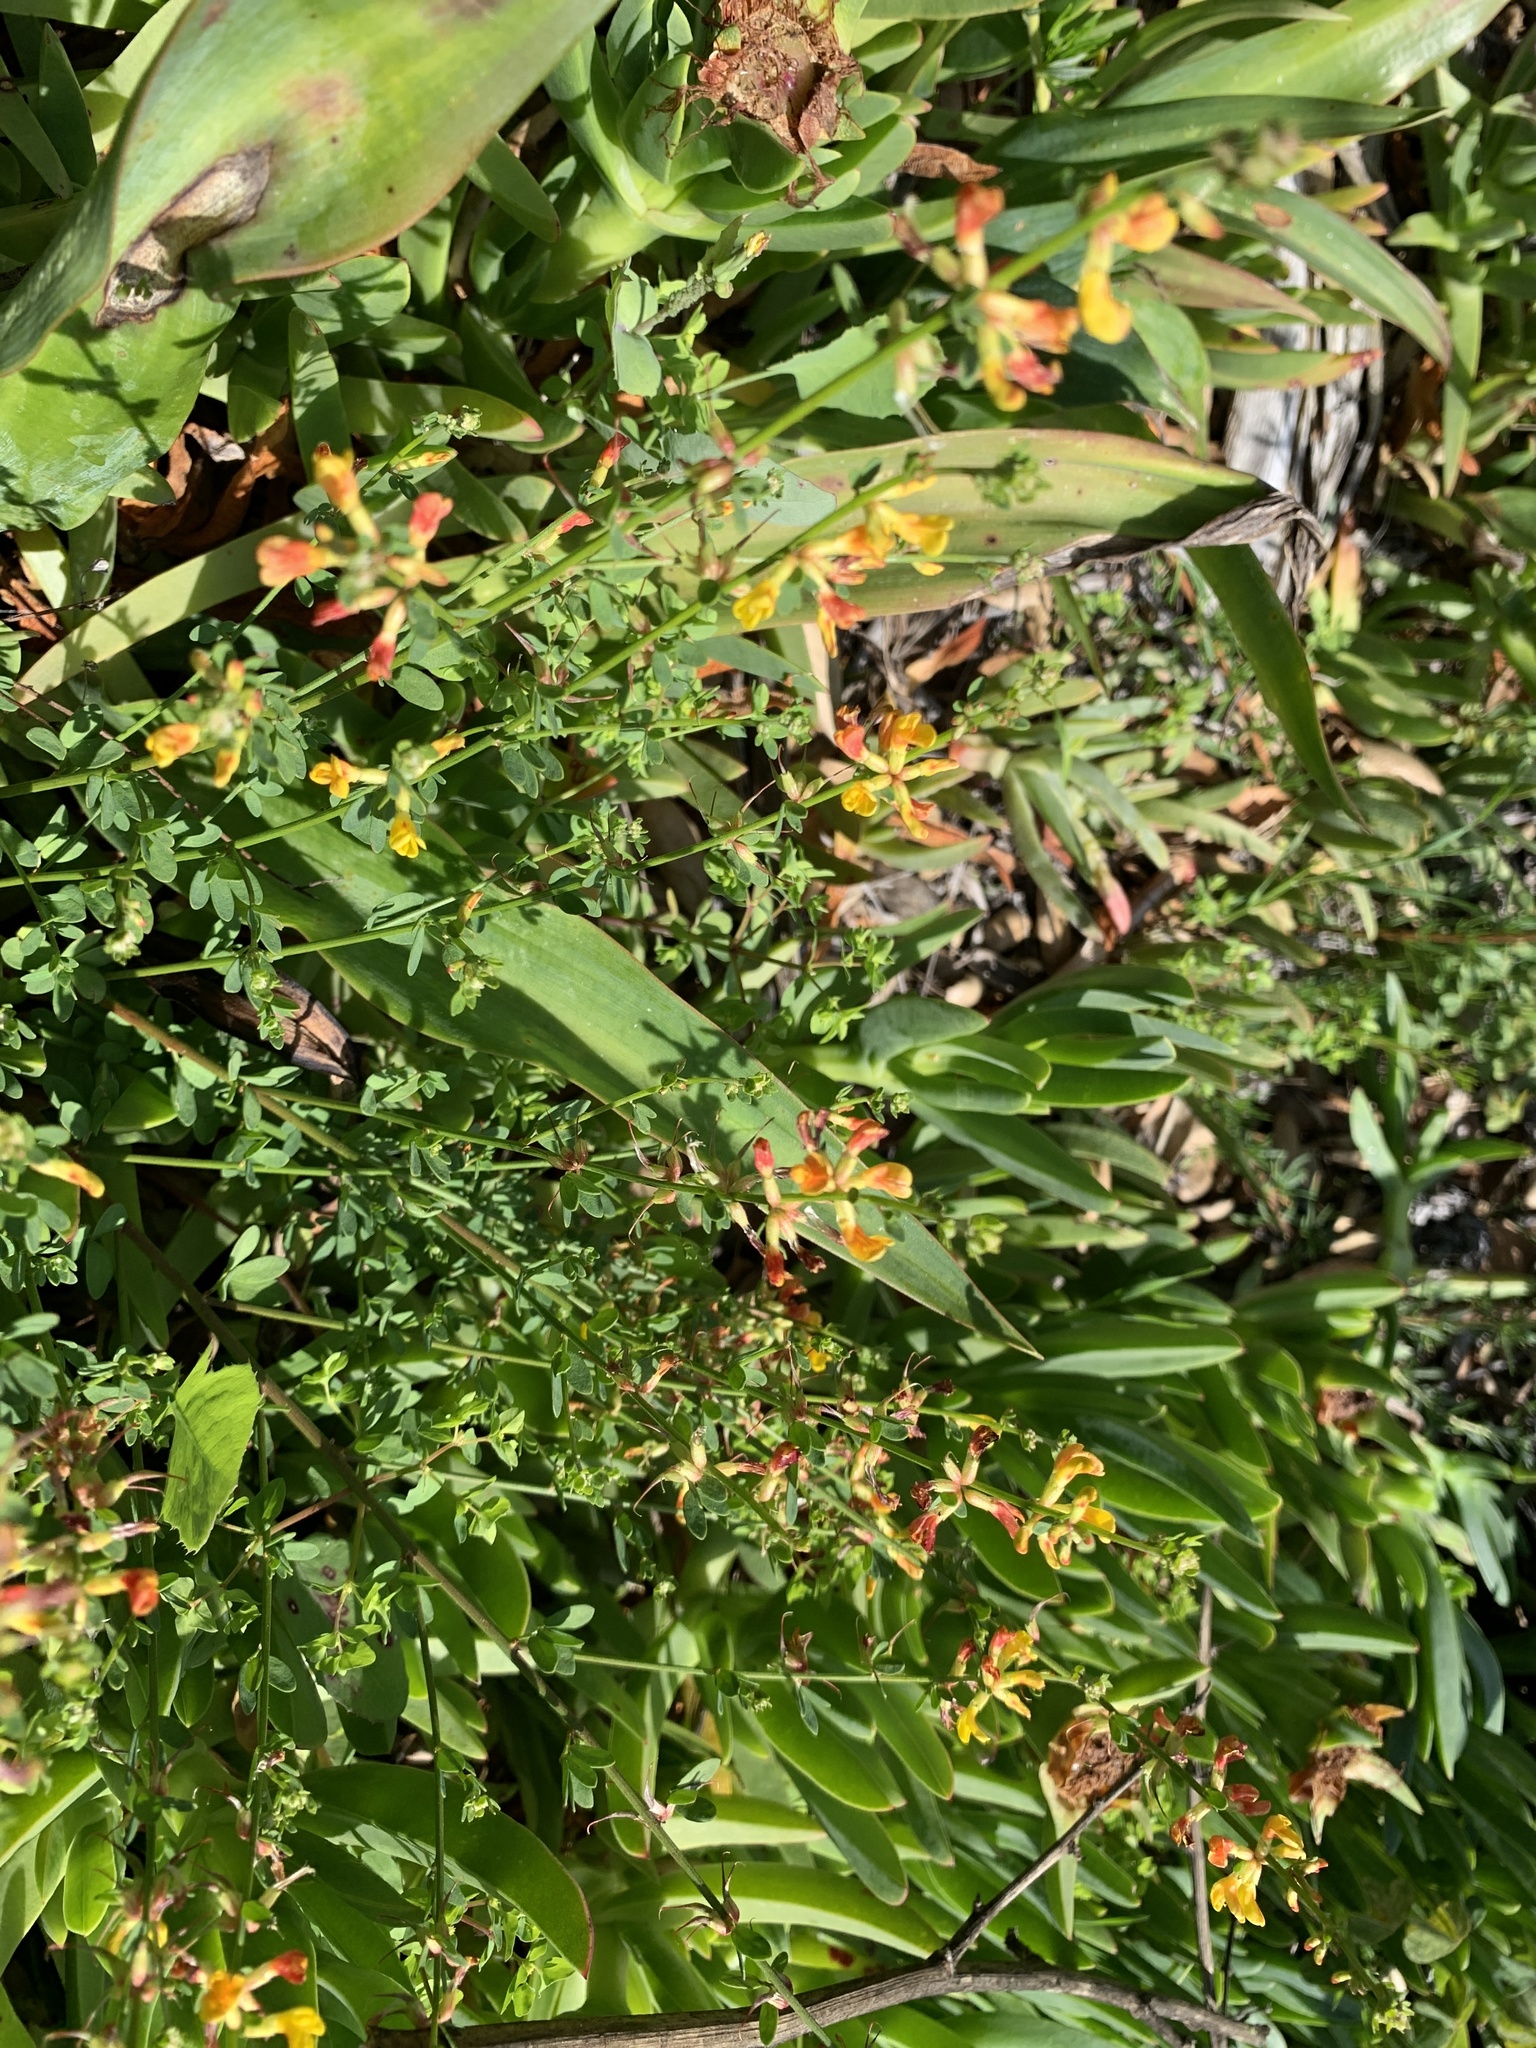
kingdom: Plantae
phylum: Tracheophyta
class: Magnoliopsida
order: Fabales
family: Fabaceae
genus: Acmispon
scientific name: Acmispon glaber
